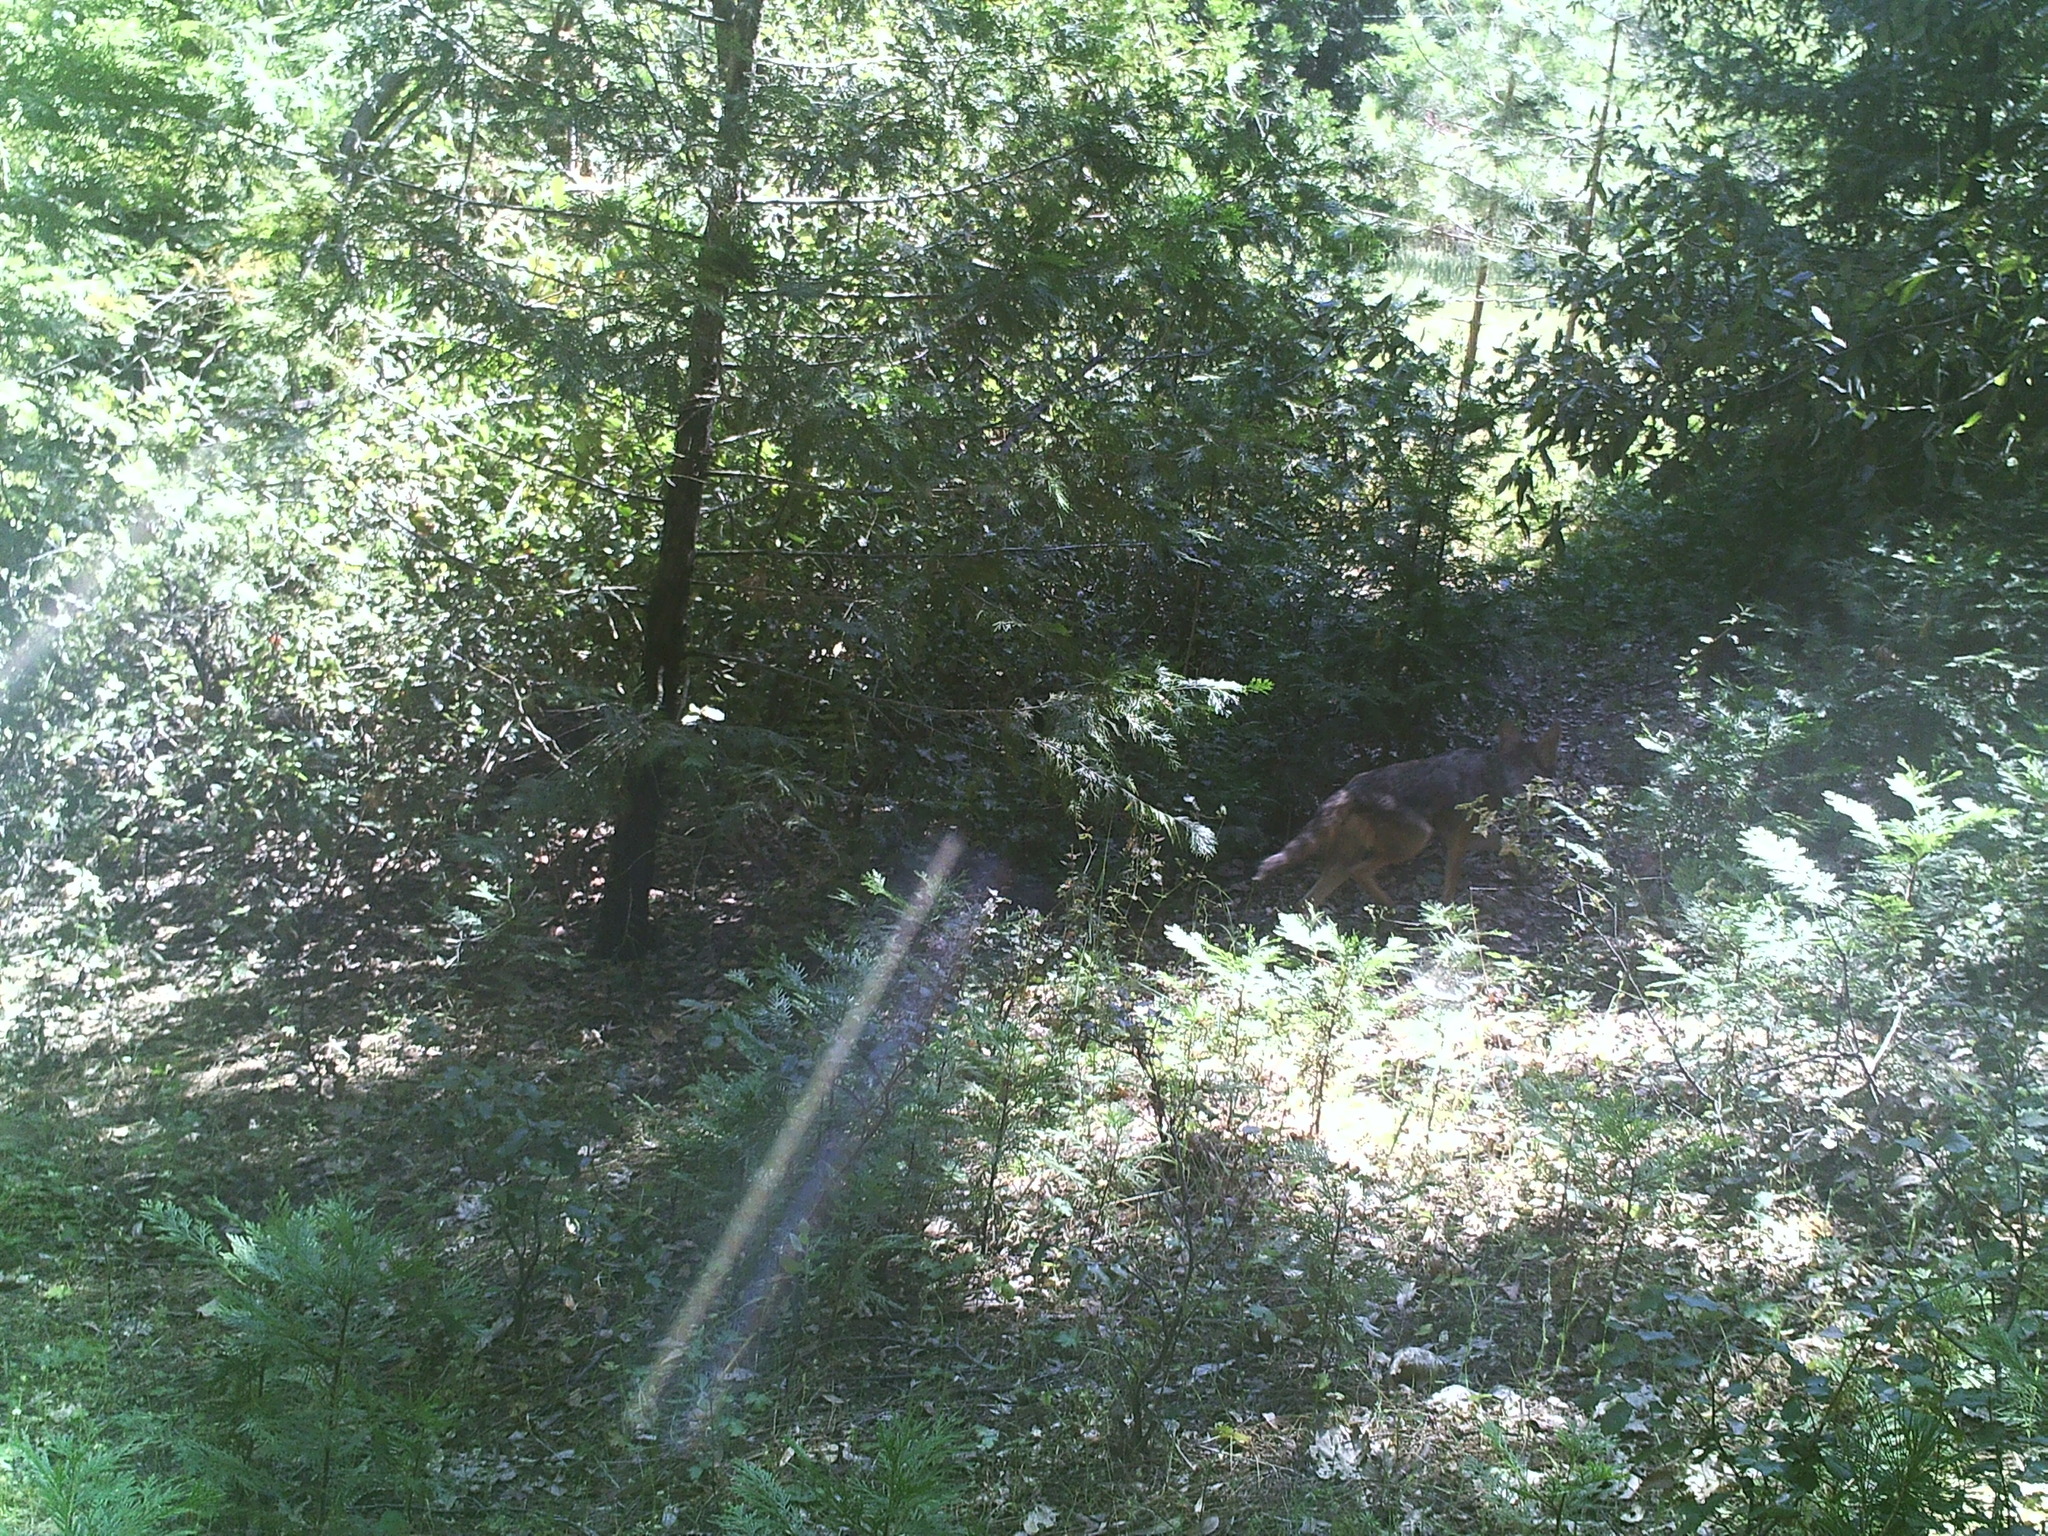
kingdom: Animalia
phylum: Chordata
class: Mammalia
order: Carnivora
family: Canidae
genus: Canis
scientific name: Canis latrans
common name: Coyote
